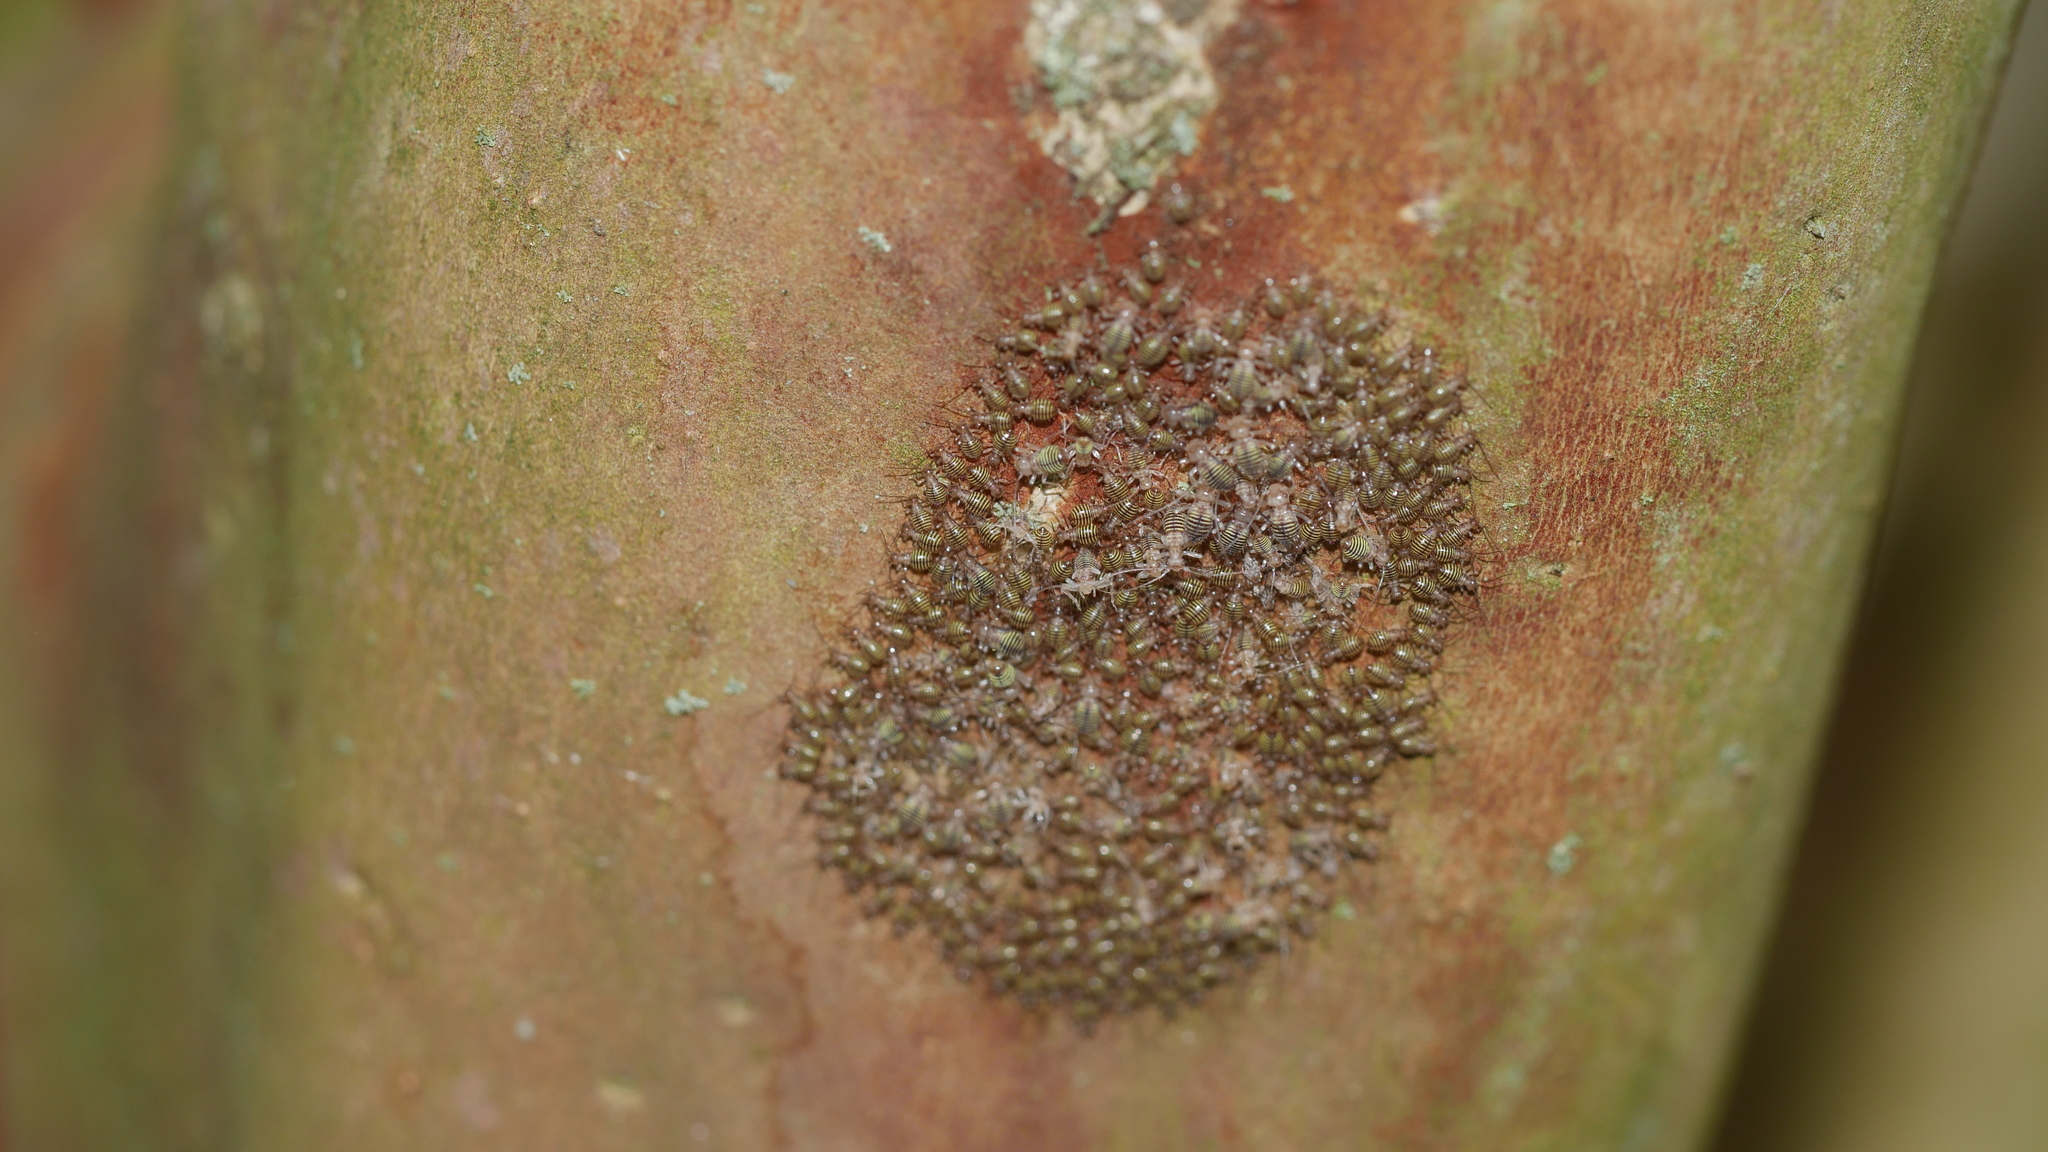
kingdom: Animalia
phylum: Arthropoda
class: Insecta
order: Psocodea
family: Psocidae
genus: Cerastipsocus
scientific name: Cerastipsocus venosus
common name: Tree cattle
